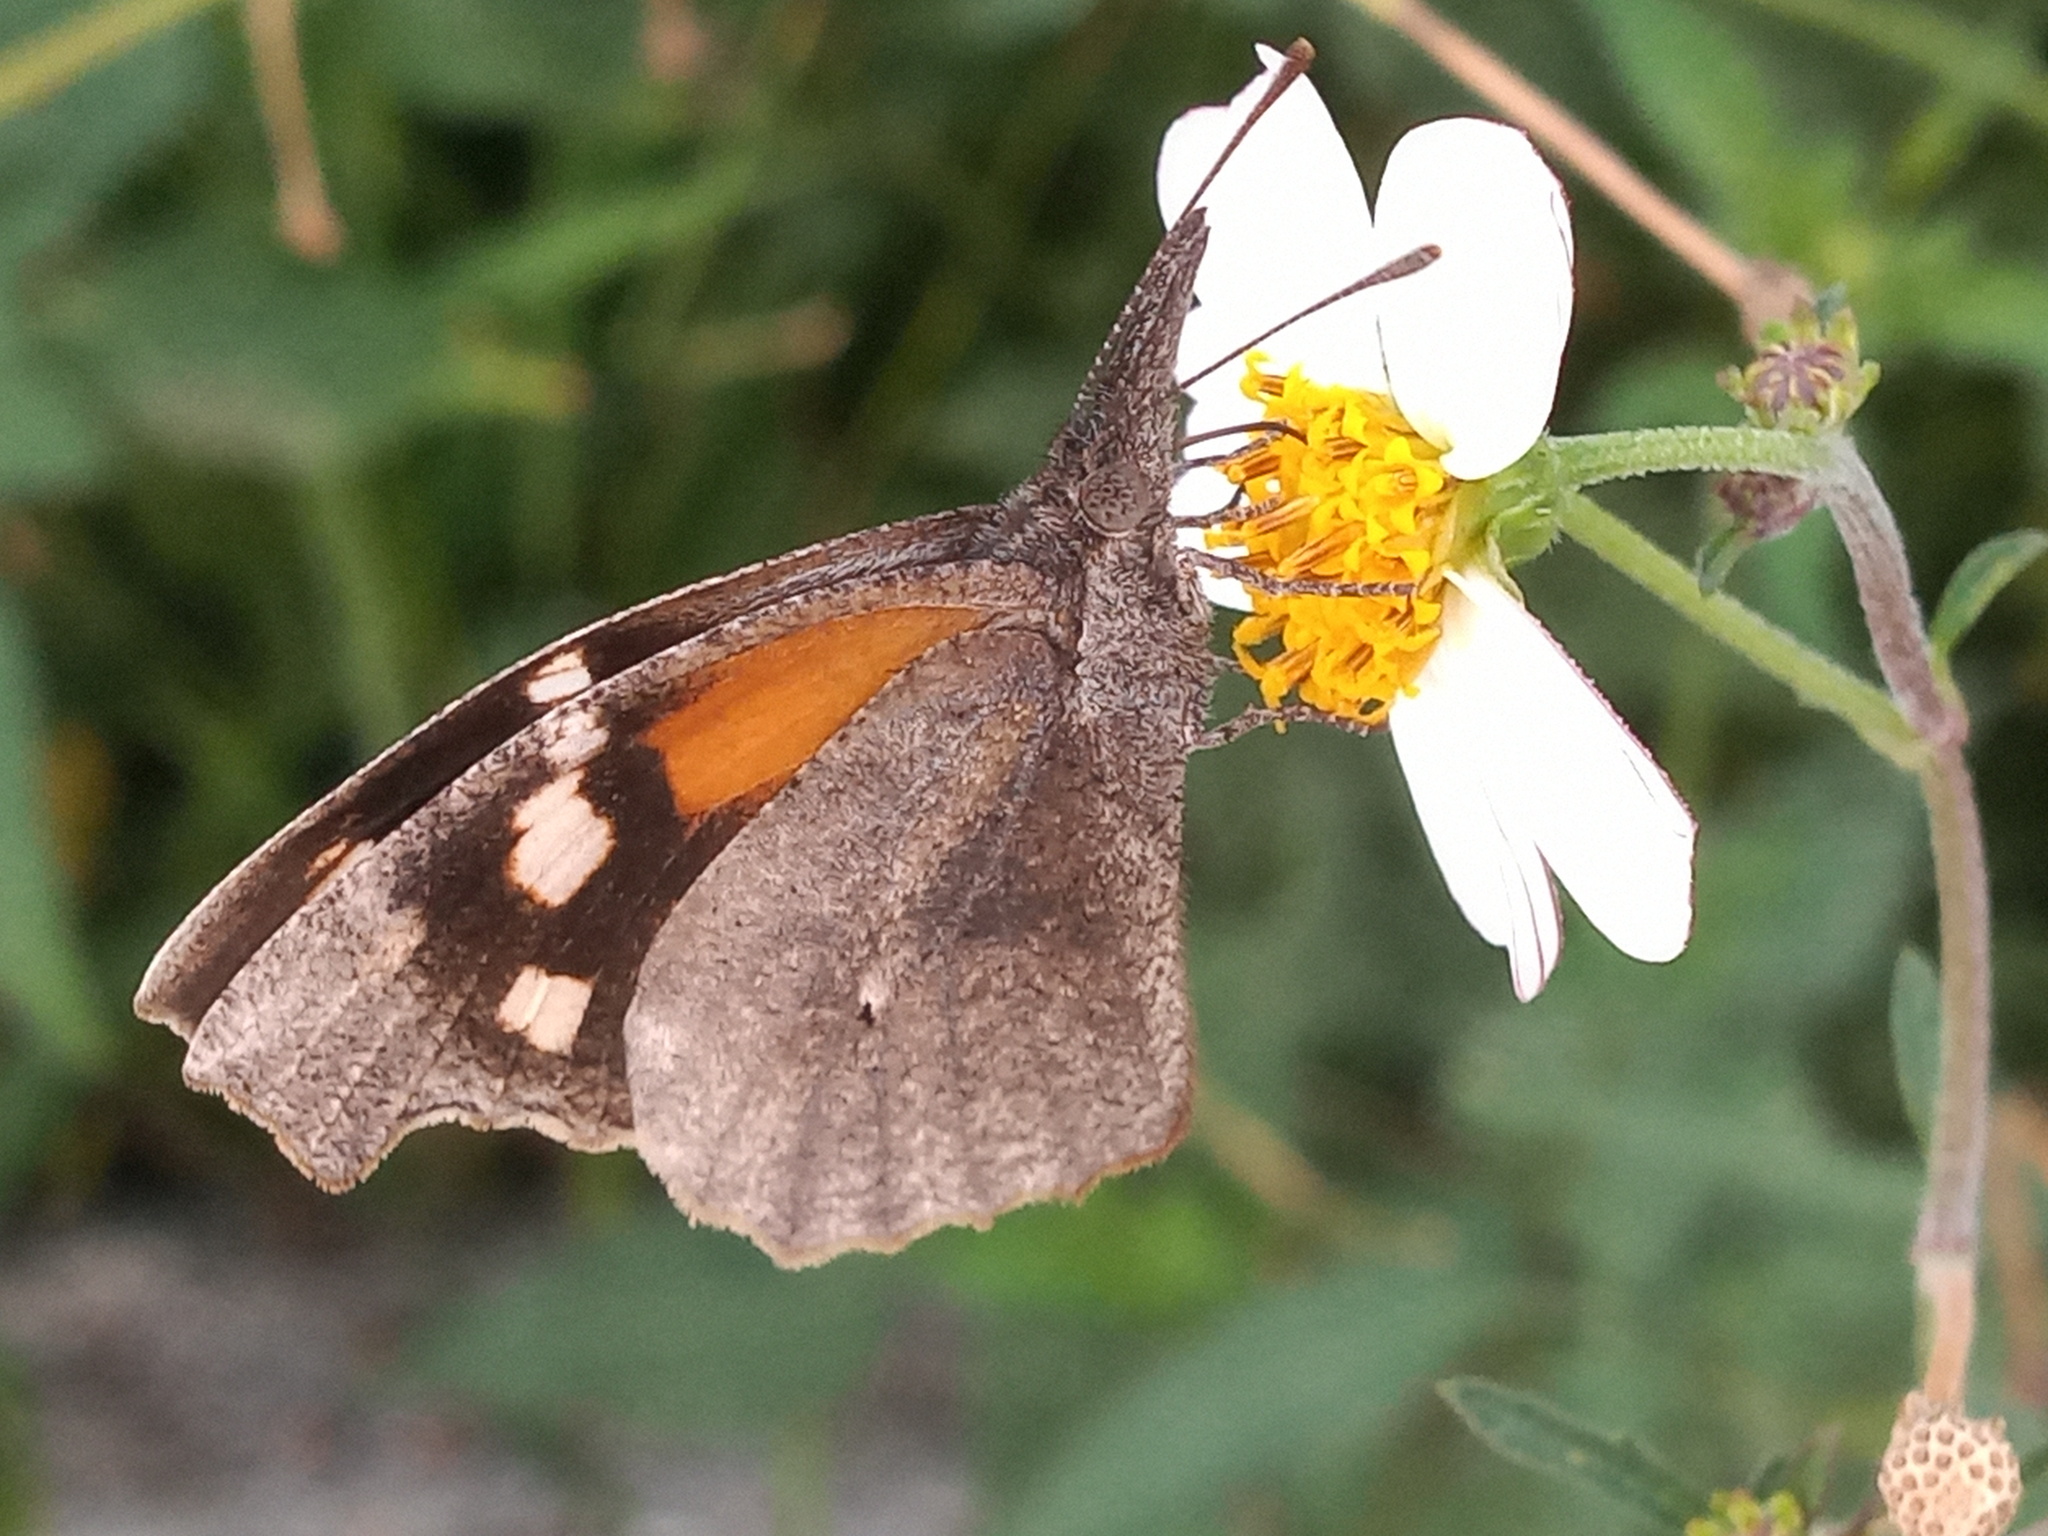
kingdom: Animalia
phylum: Arthropoda
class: Insecta
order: Lepidoptera
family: Nymphalidae
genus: Libytheana
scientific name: Libytheana carinenta
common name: American snout
